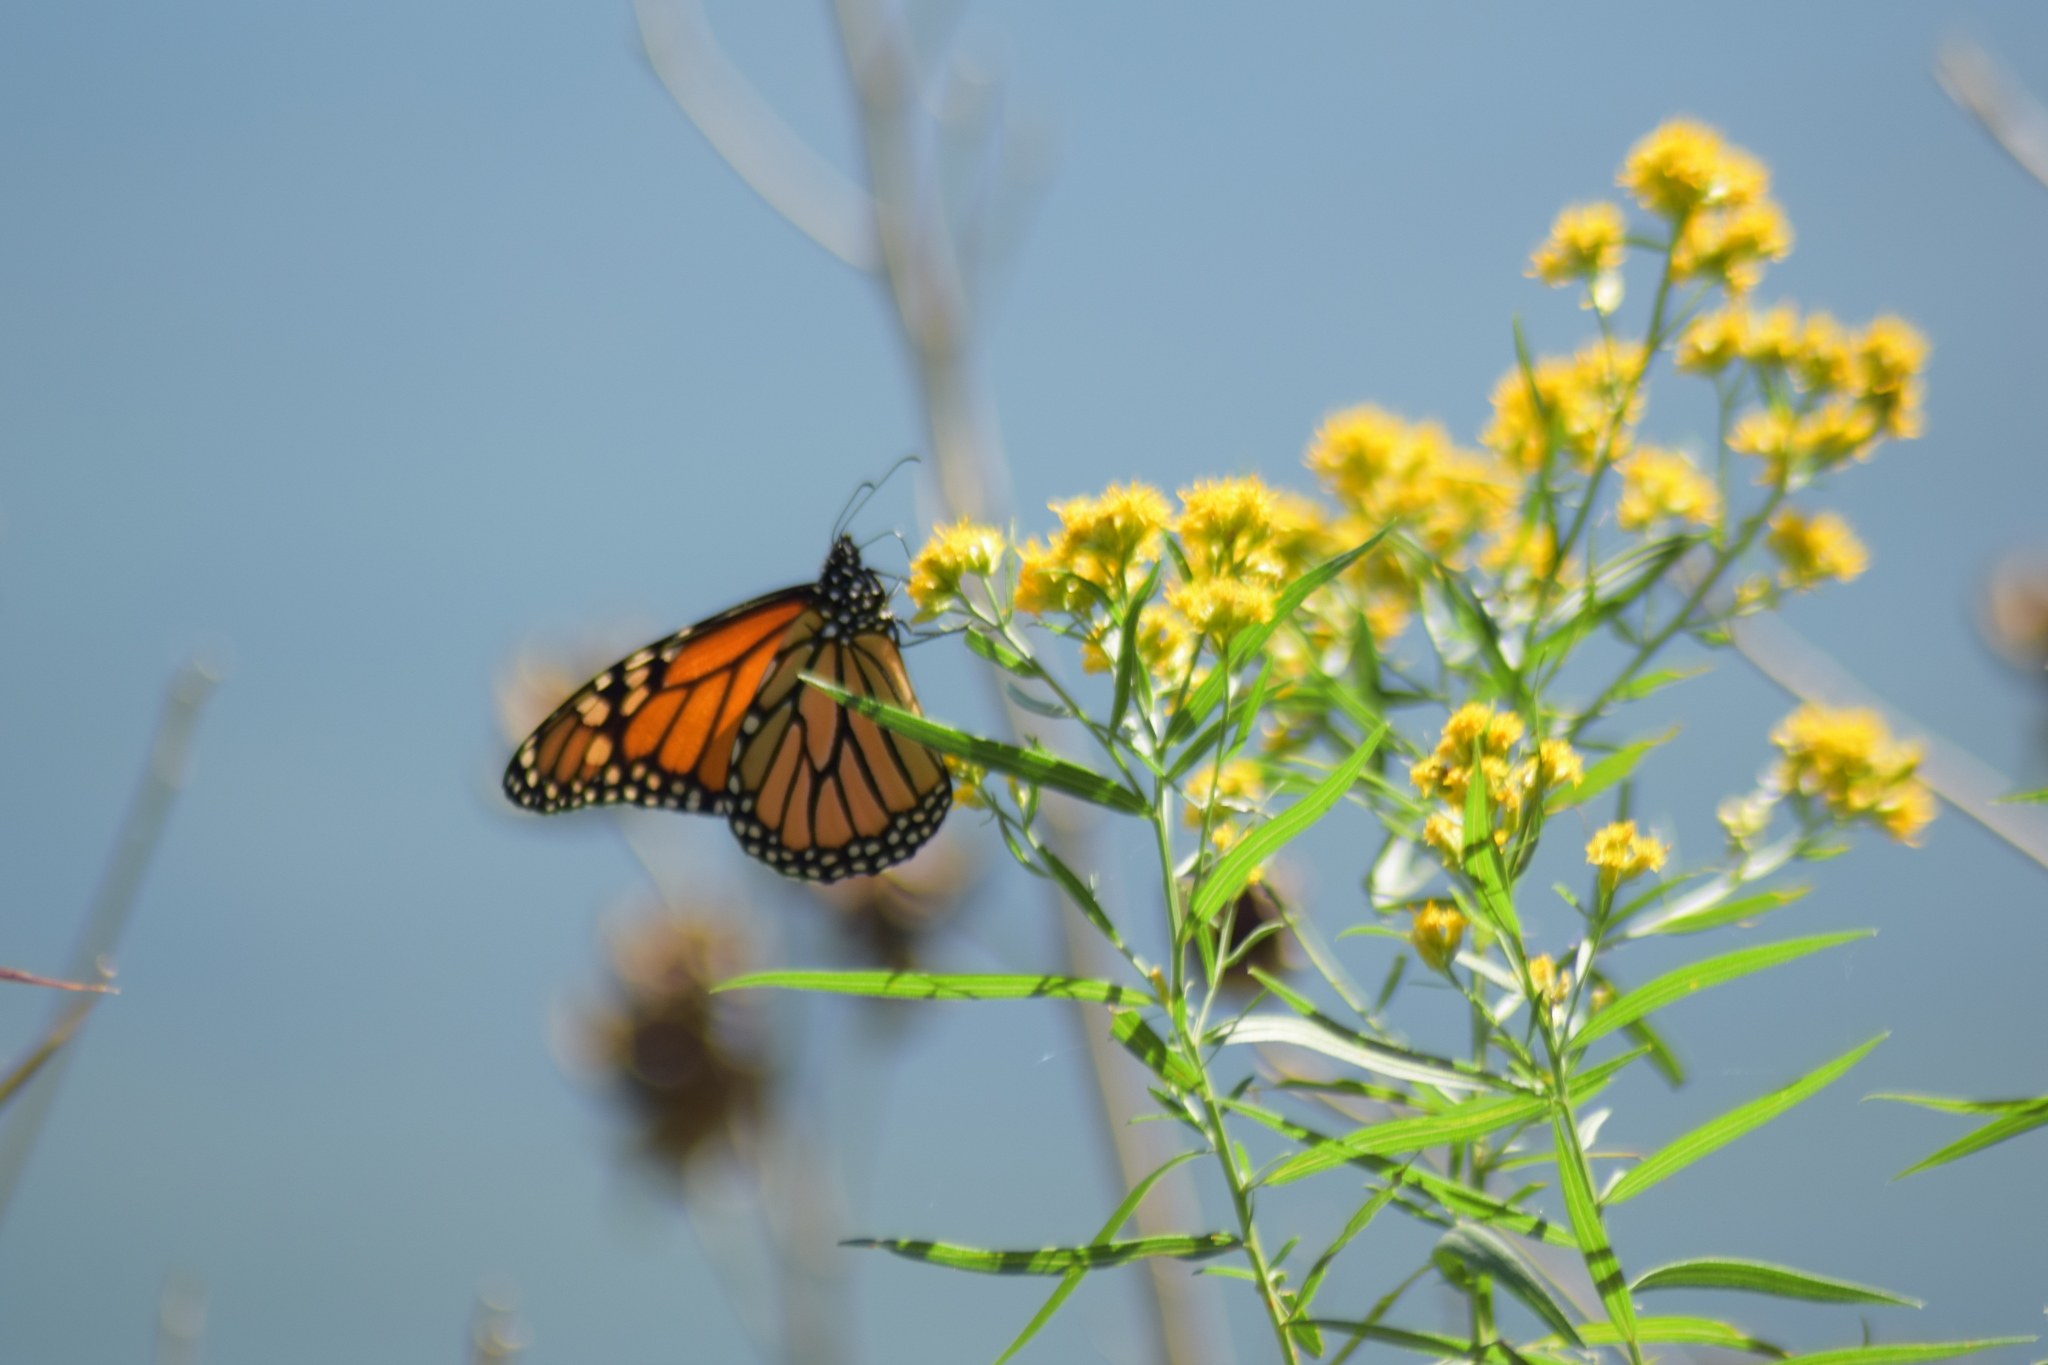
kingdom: Animalia
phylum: Arthropoda
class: Insecta
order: Lepidoptera
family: Nymphalidae
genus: Danaus
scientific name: Danaus plexippus
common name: Monarch
